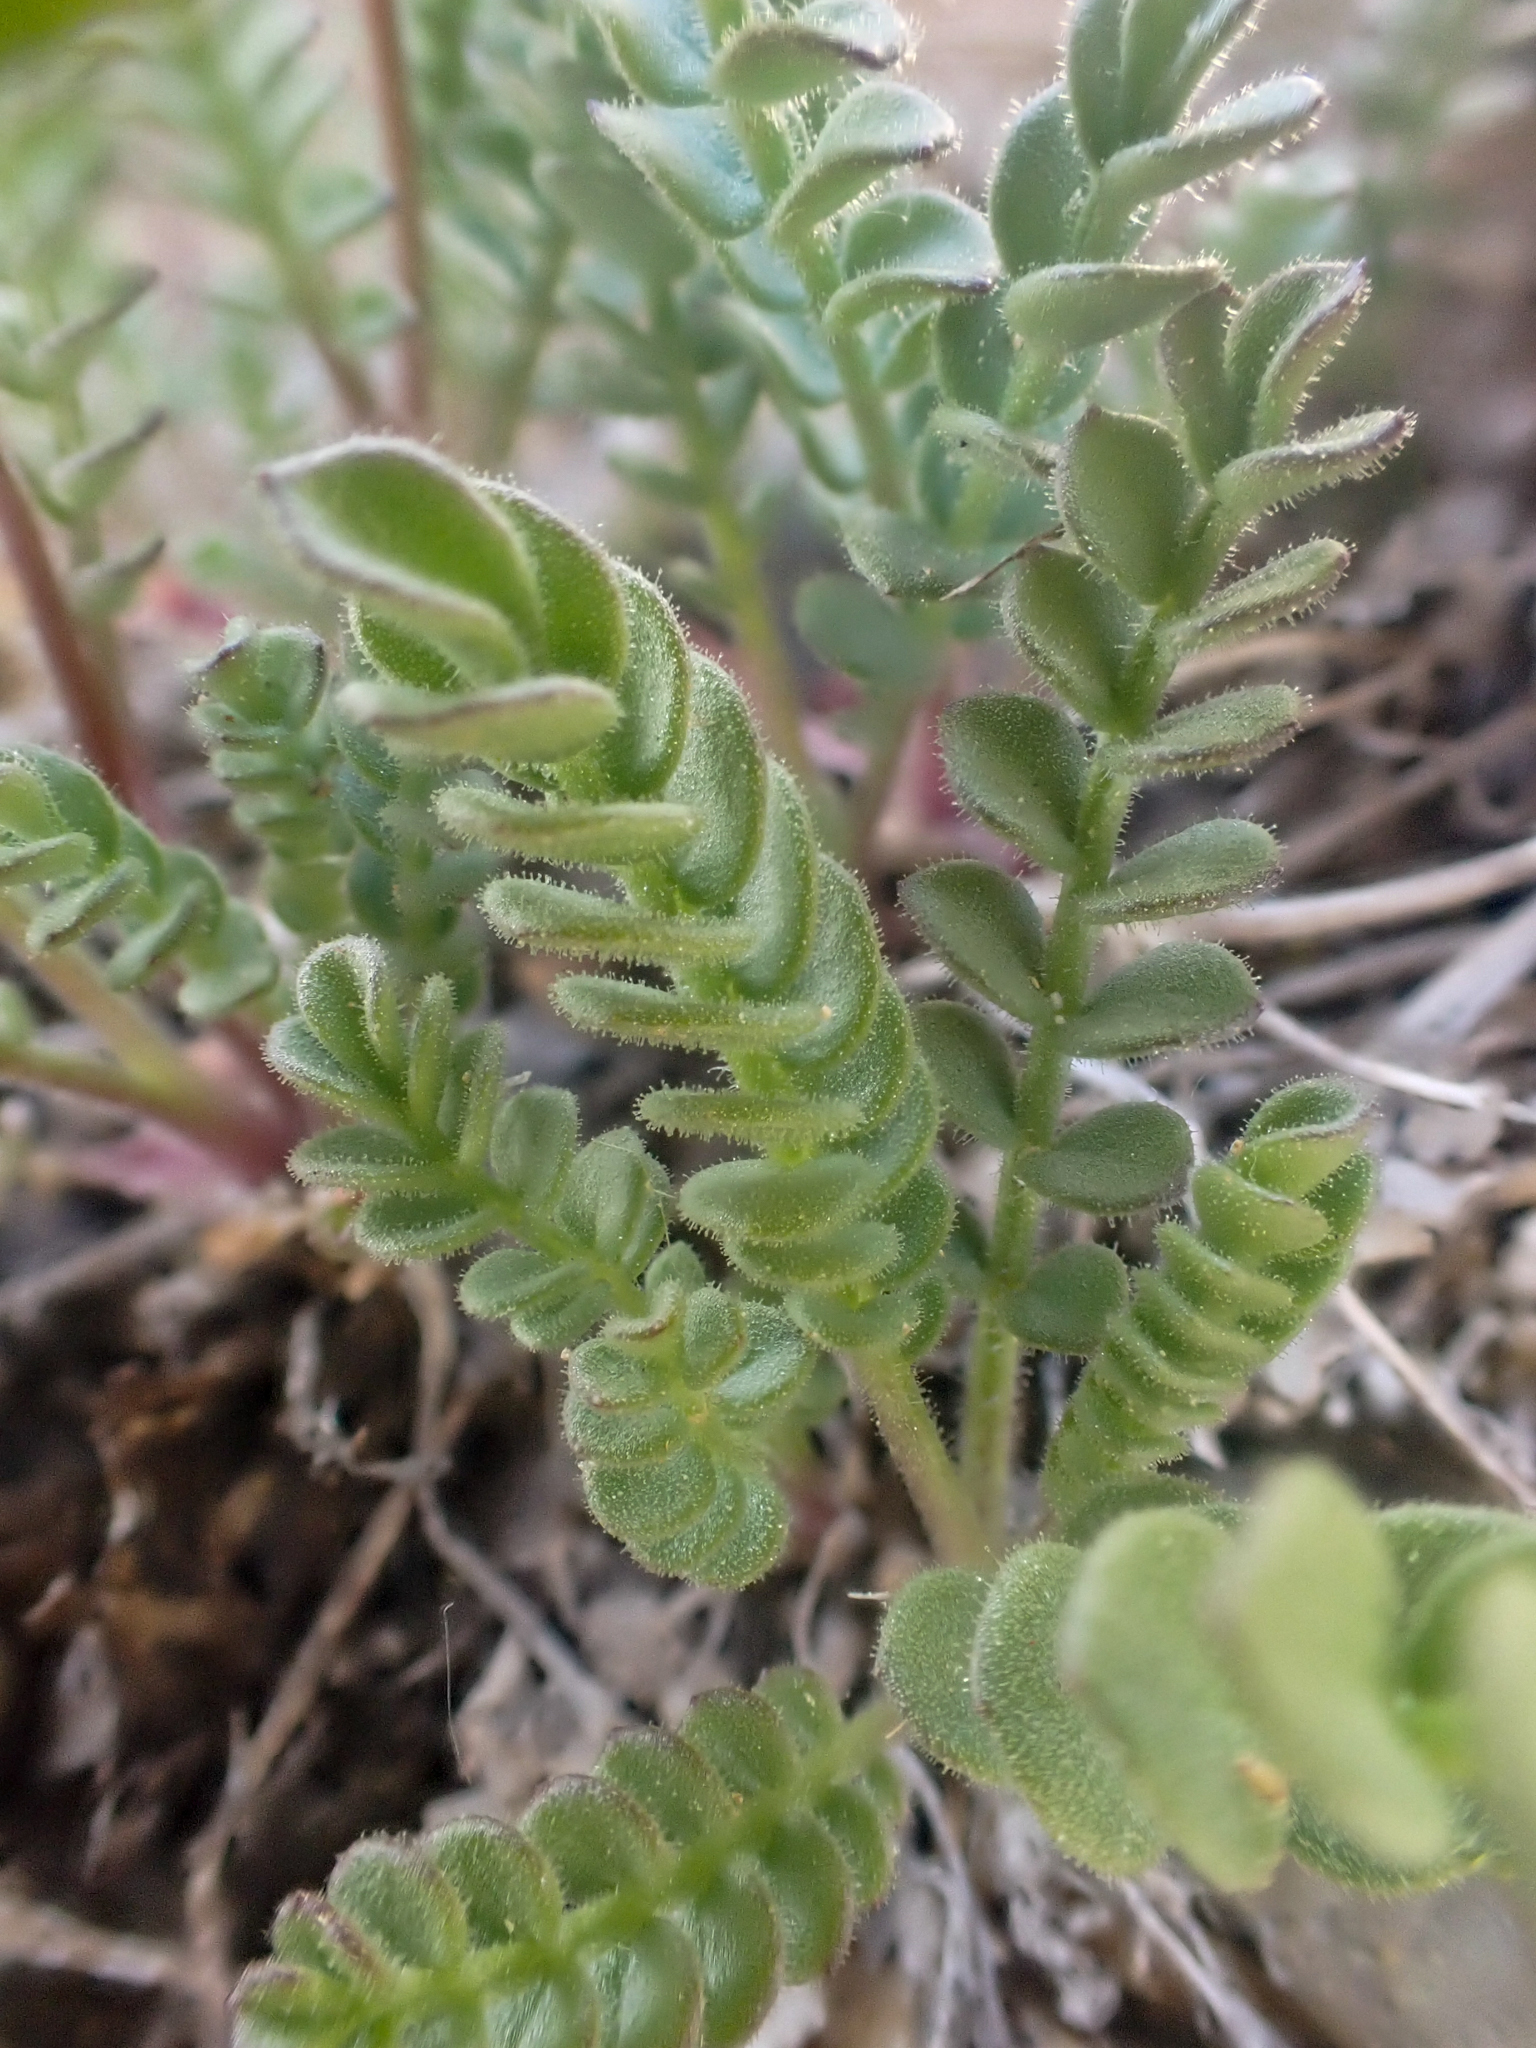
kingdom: Plantae
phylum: Tracheophyta
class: Magnoliopsida
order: Ericales
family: Polemoniaceae
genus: Polemonium
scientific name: Polemonium pulcherrimum
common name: Short jacob's-ladder
